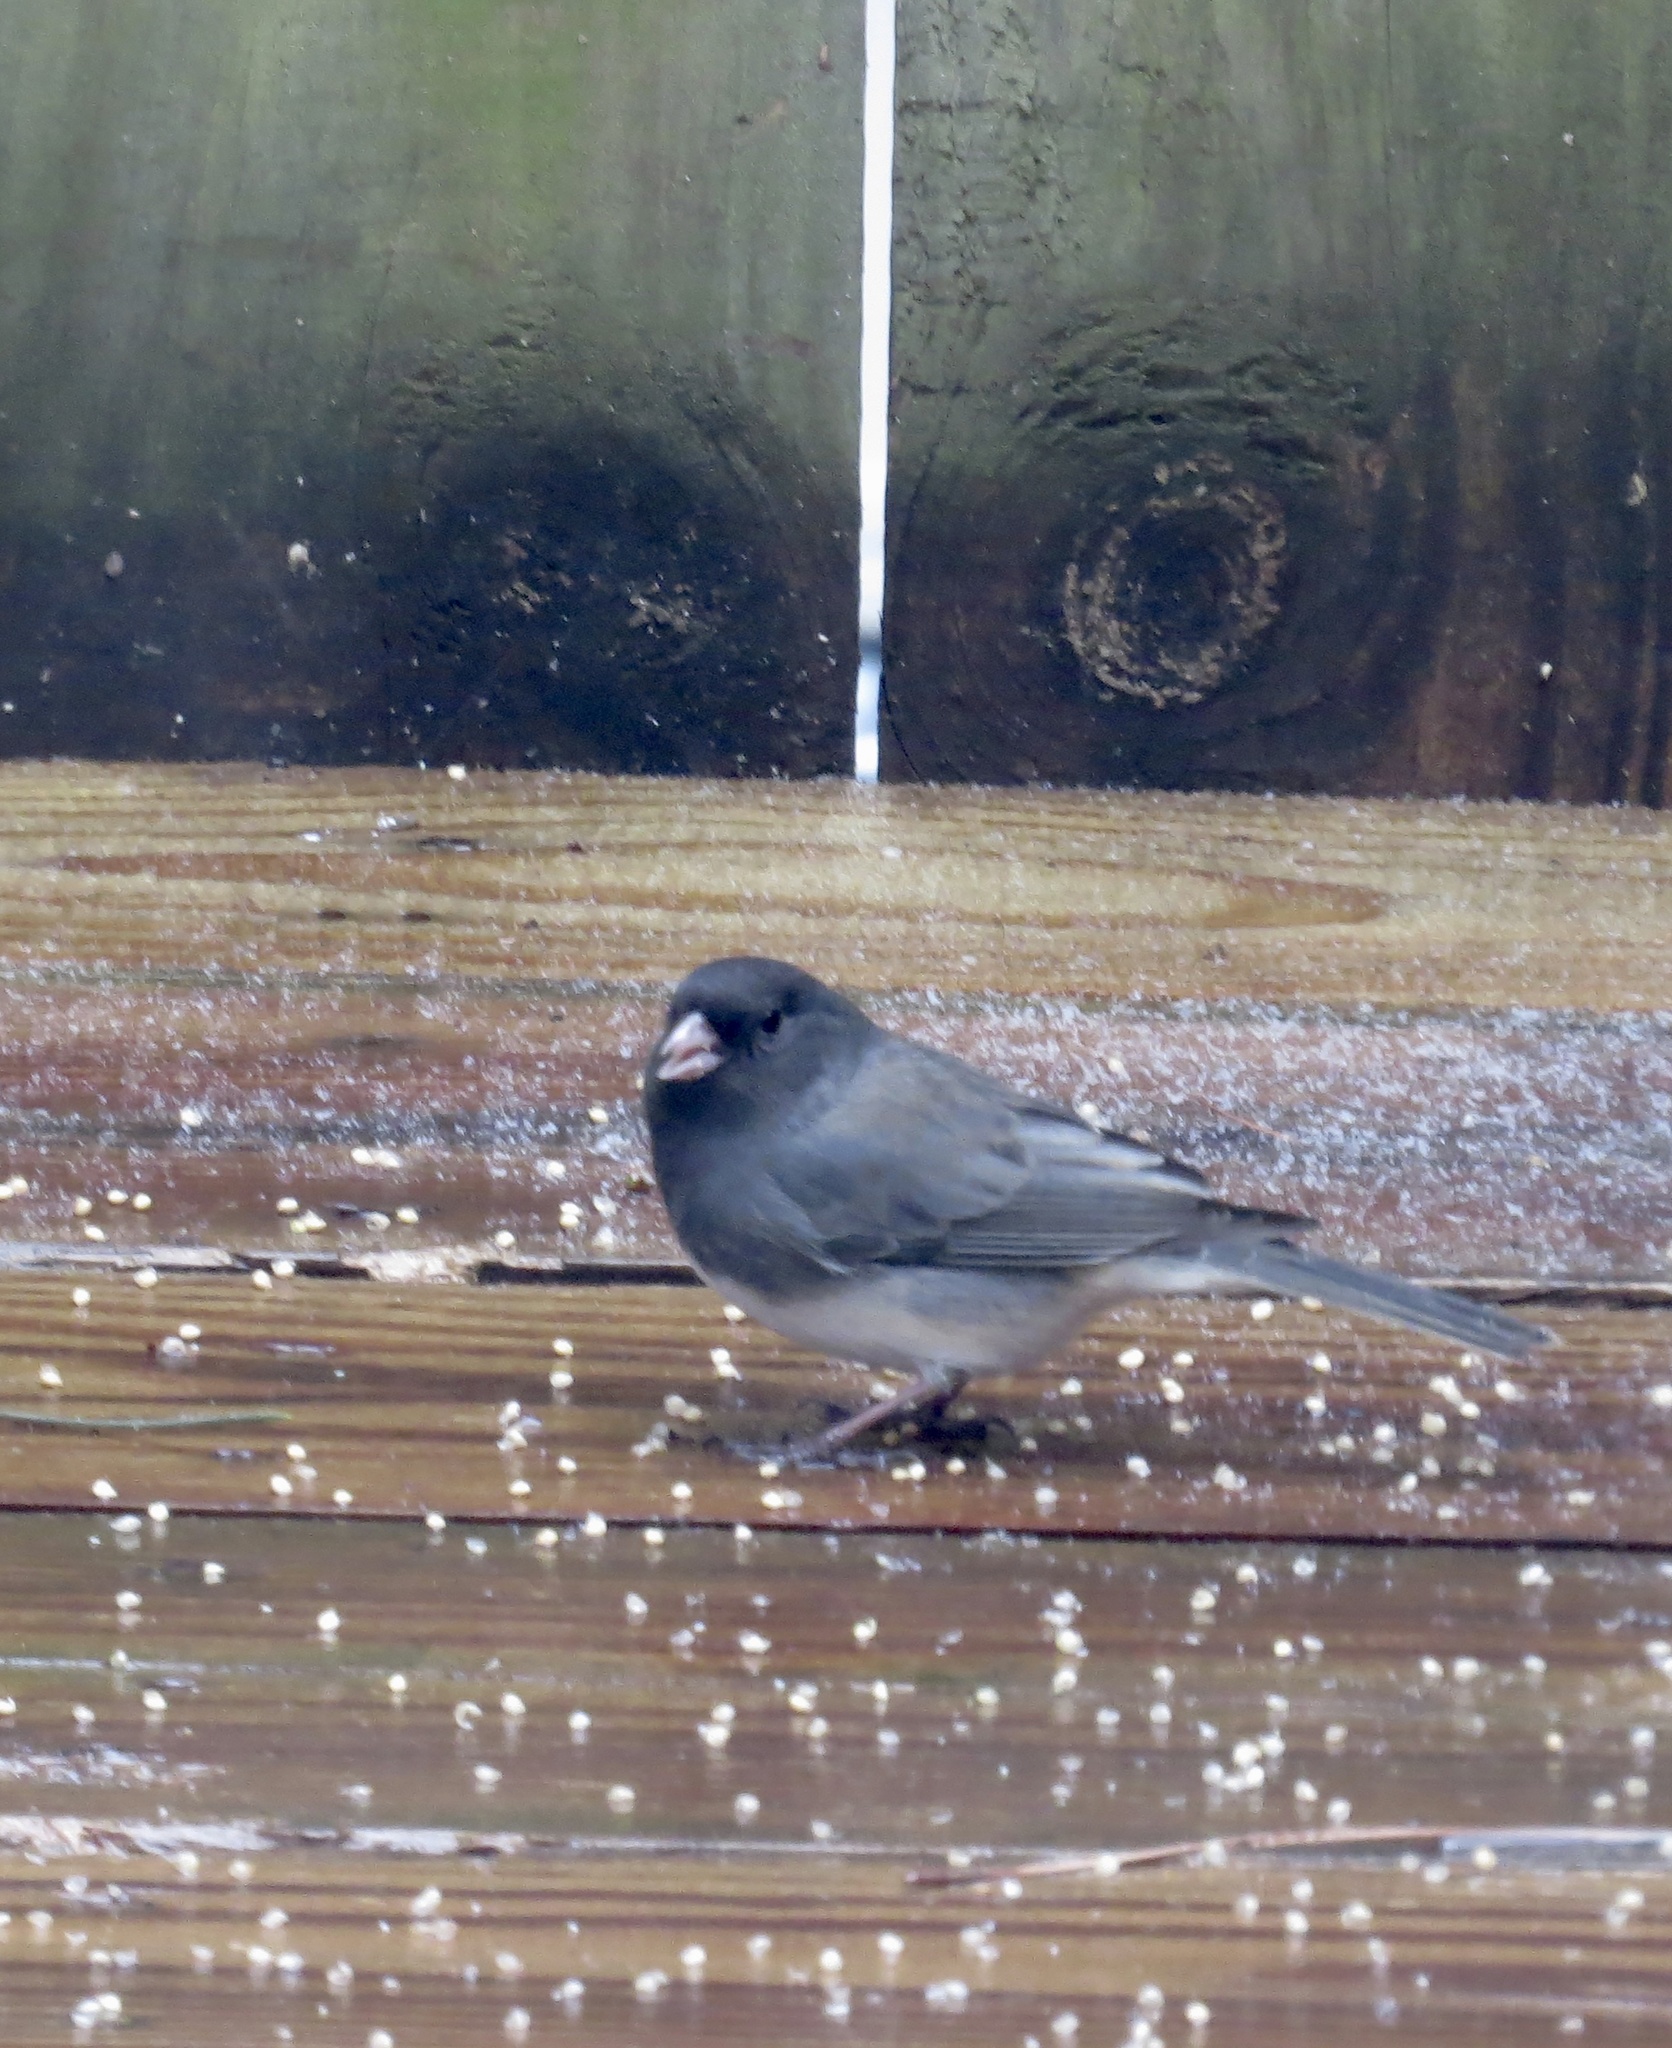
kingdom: Animalia
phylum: Chordata
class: Aves
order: Passeriformes
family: Passerellidae
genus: Junco
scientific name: Junco hyemalis
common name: Dark-eyed junco
